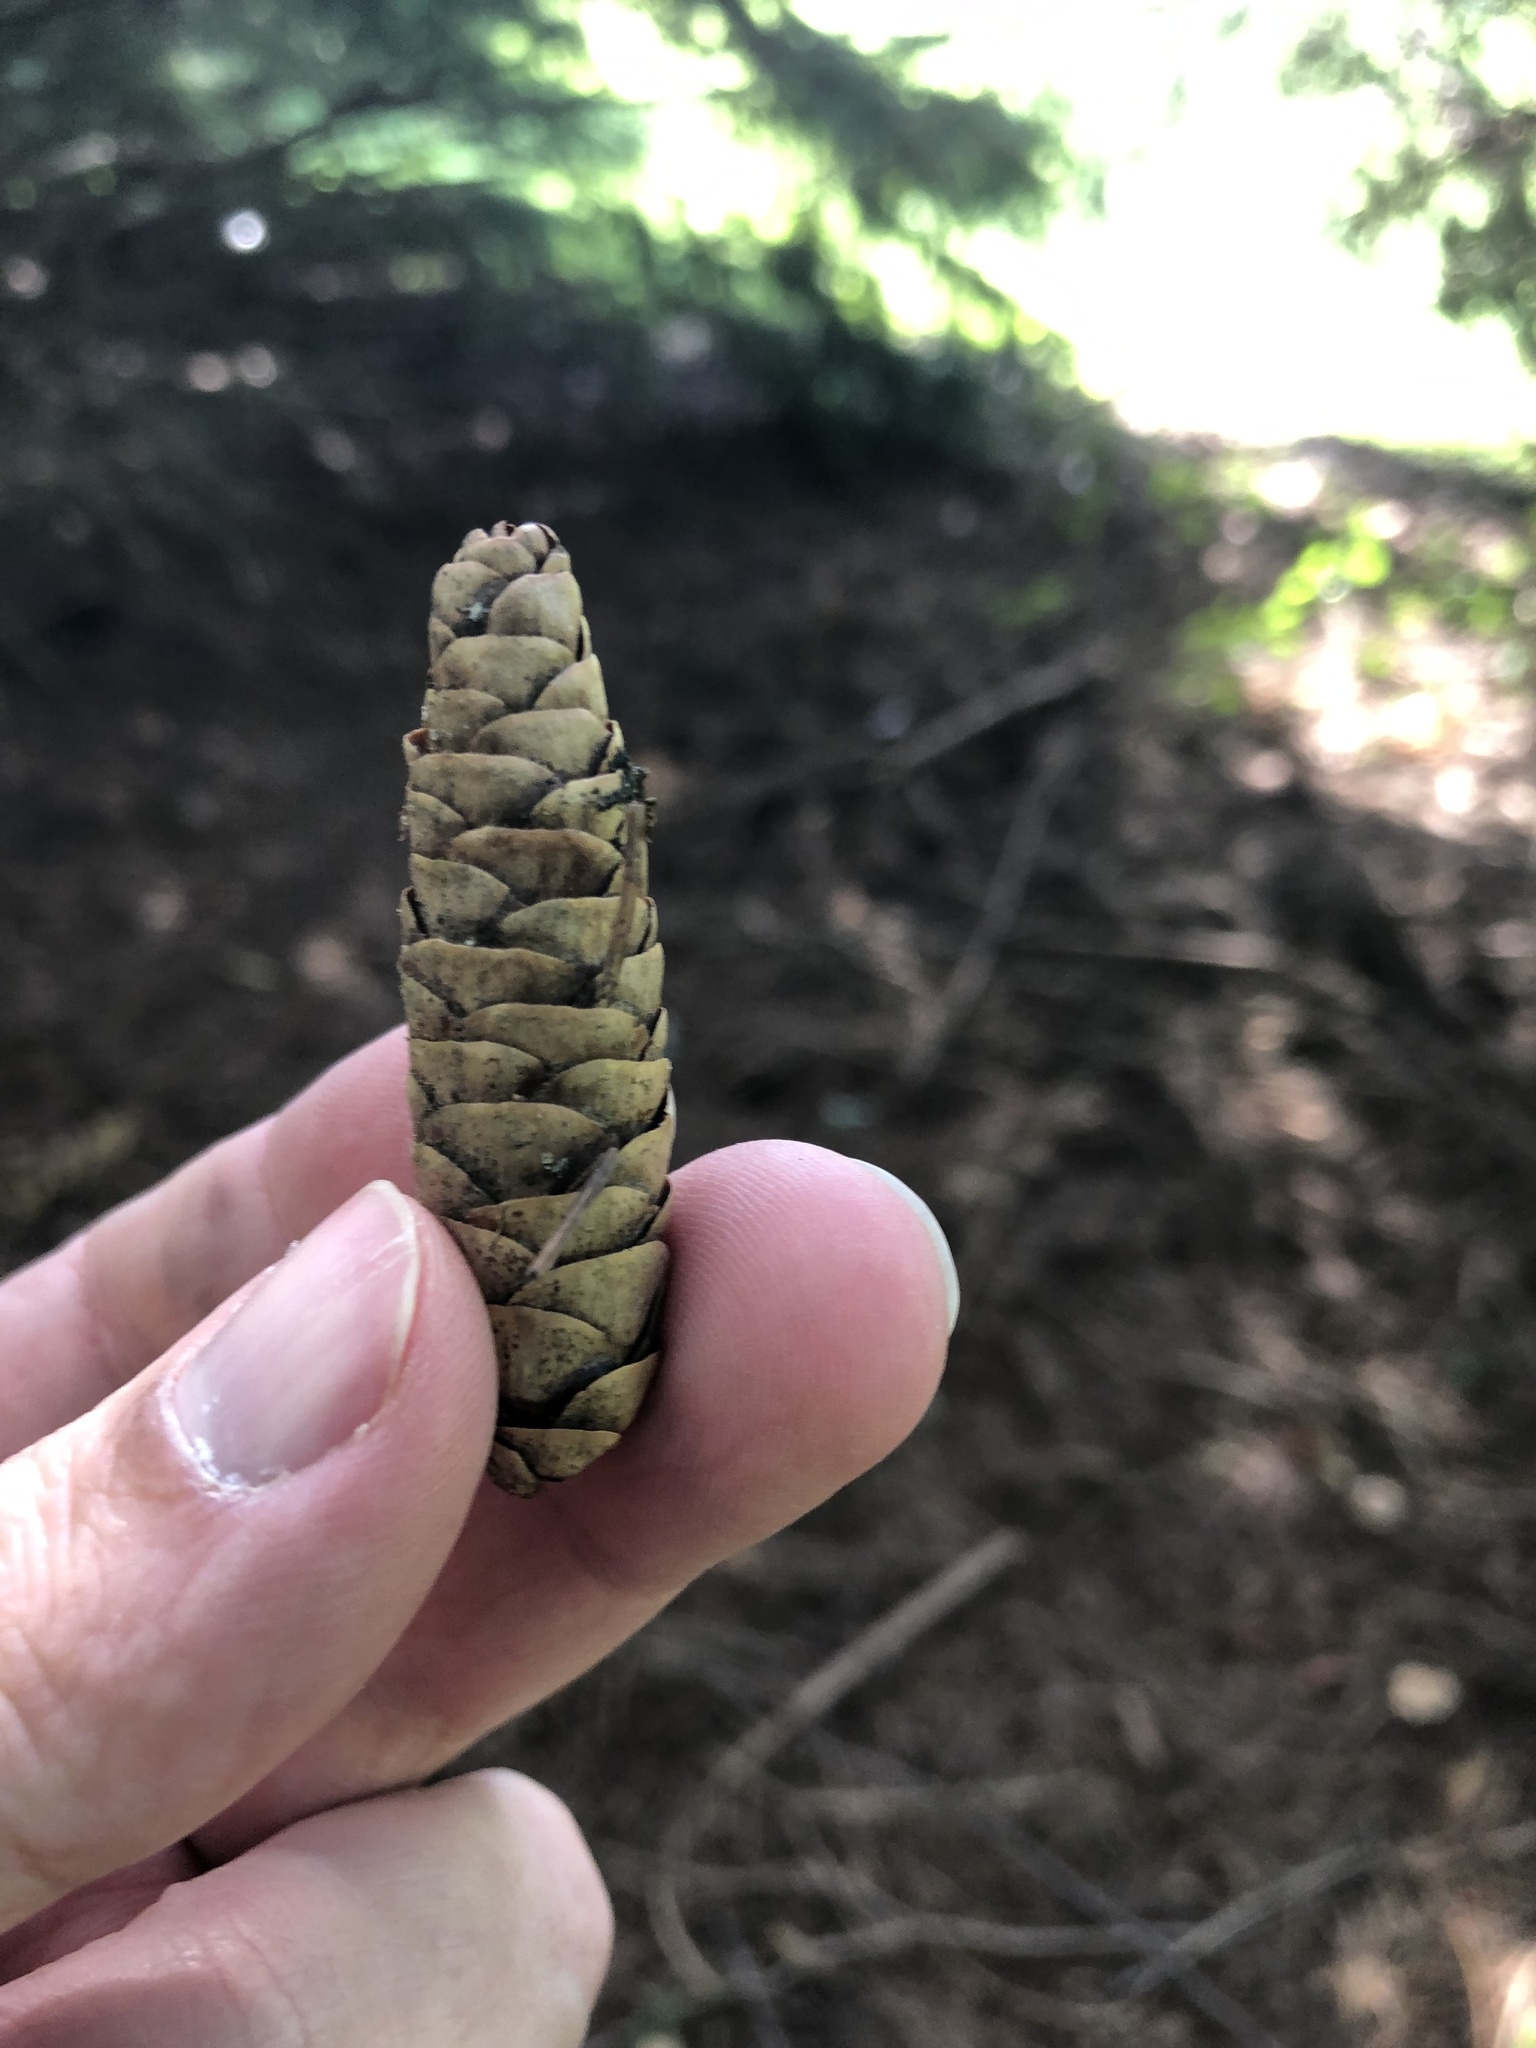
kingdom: Plantae
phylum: Tracheophyta
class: Pinopsida
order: Pinales
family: Pinaceae
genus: Picea
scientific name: Picea glauca
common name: White spruce
